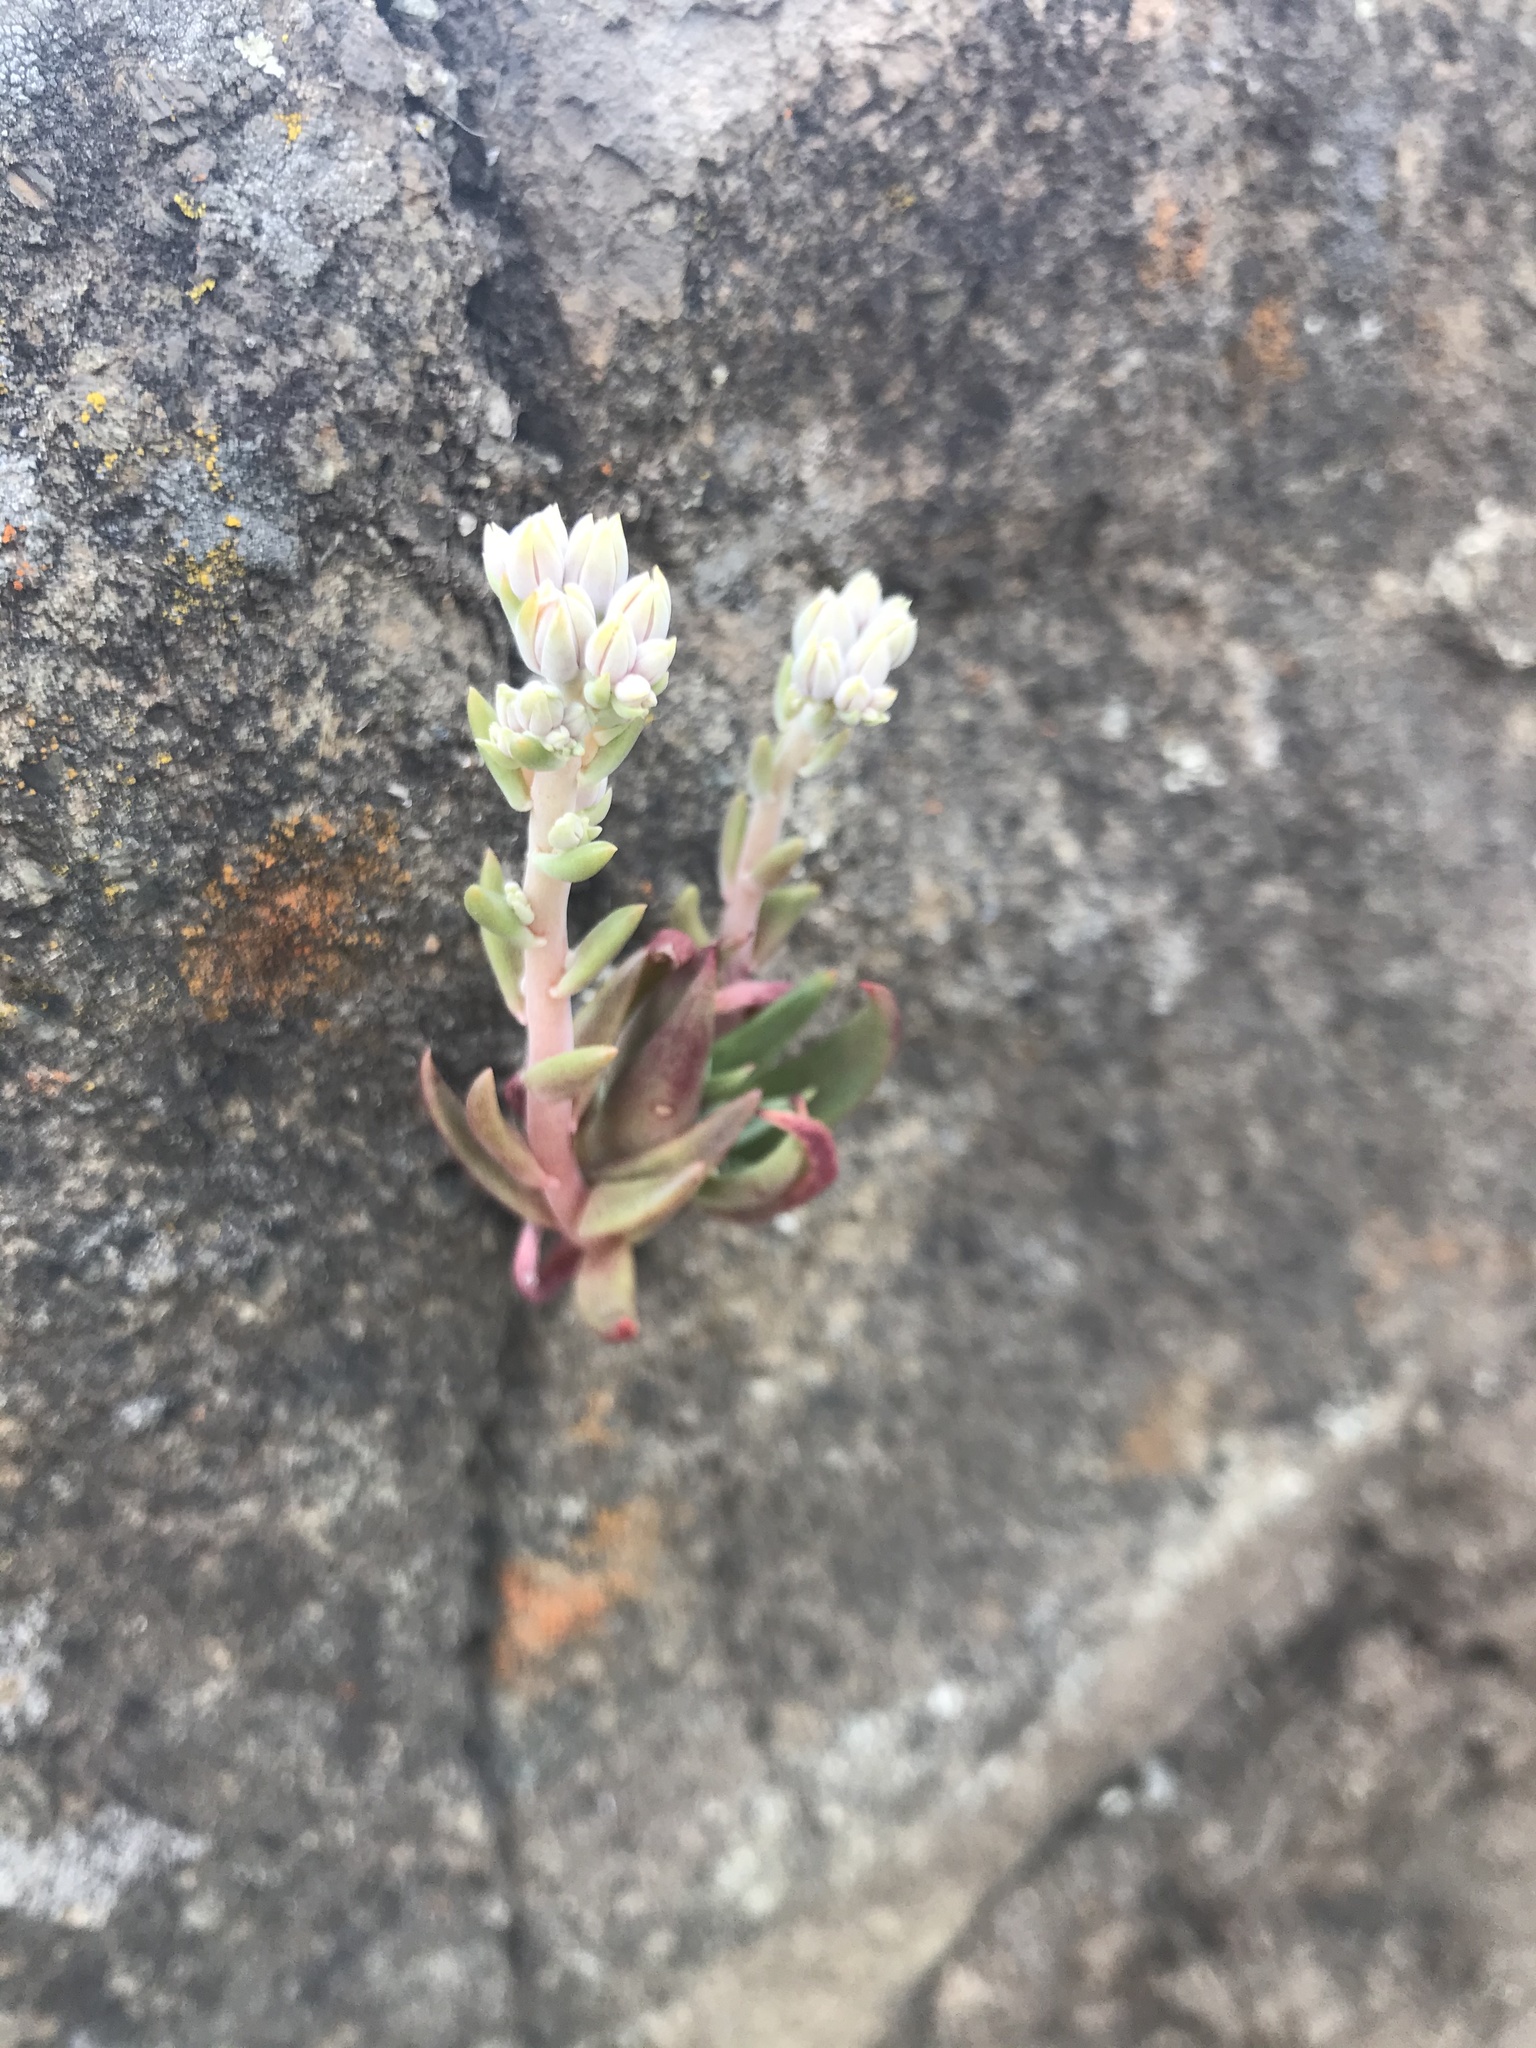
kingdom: Plantae
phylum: Tracheophyta
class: Magnoliopsida
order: Saxifragales
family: Crassulaceae
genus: Dudleya
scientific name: Dudleya abramsii
